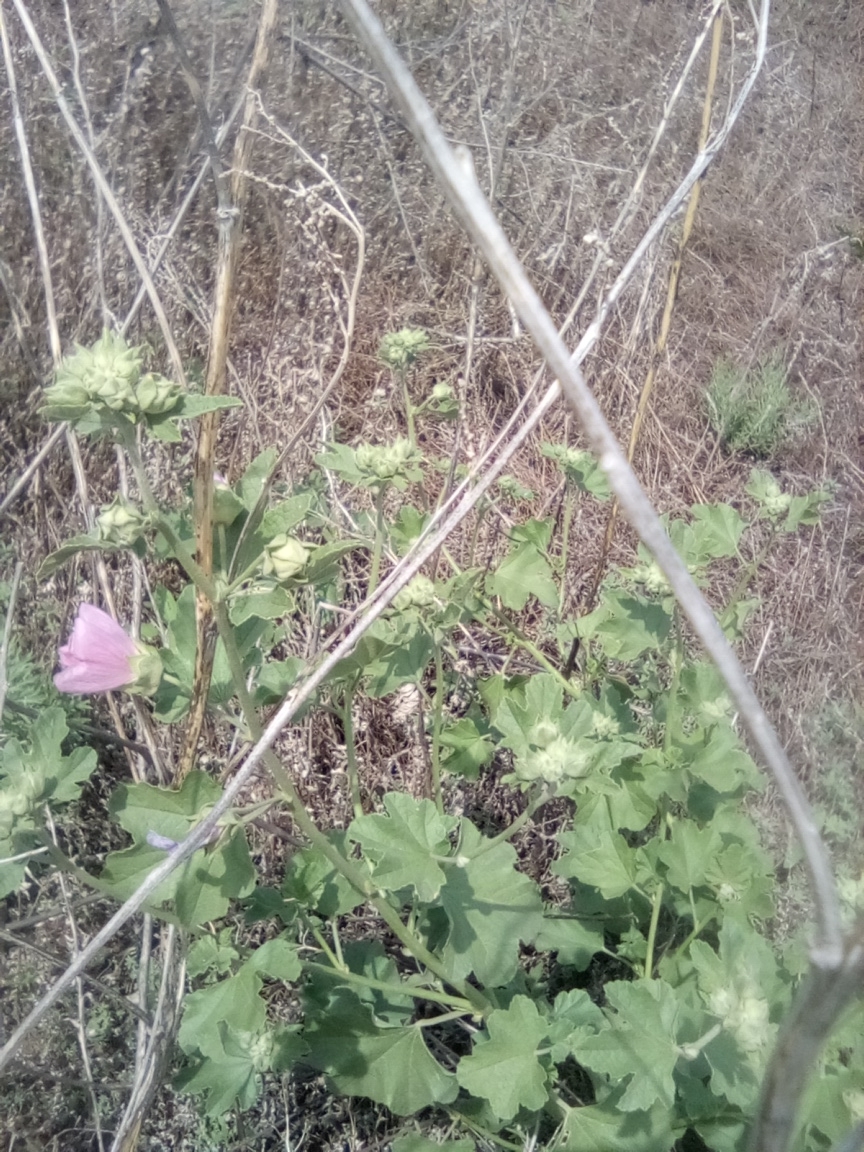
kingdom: Plantae
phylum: Tracheophyta
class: Magnoliopsida
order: Malvales
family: Malvaceae
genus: Malva
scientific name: Malva thuringiaca
